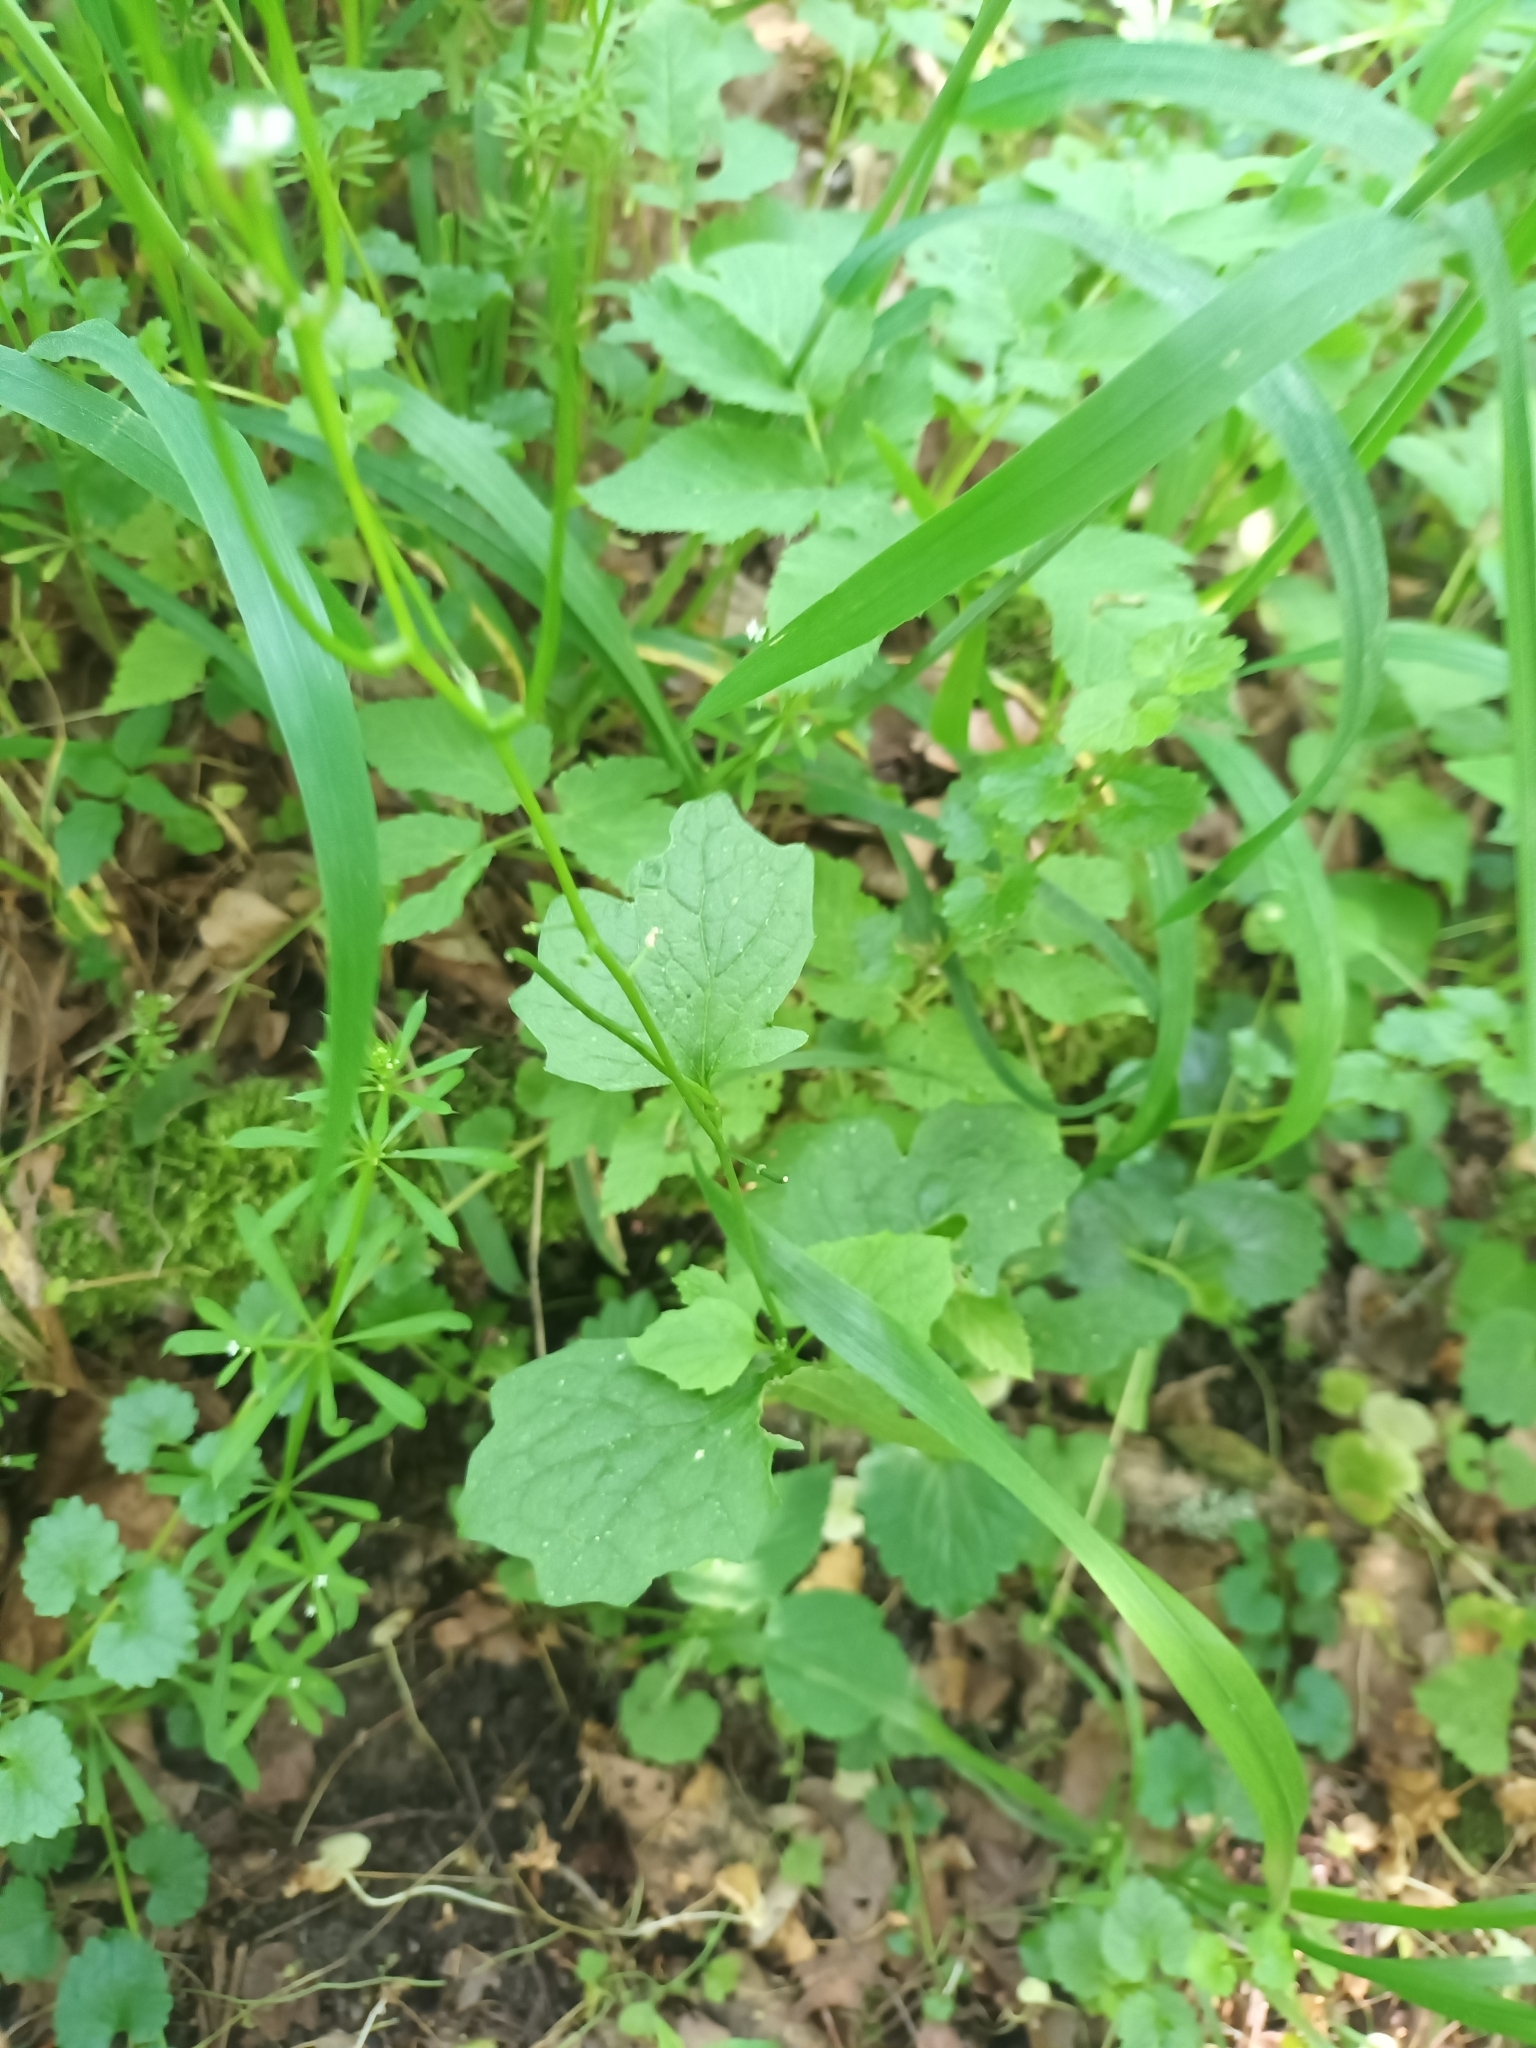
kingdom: Plantae
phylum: Tracheophyta
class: Magnoliopsida
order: Brassicales
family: Brassicaceae
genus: Alliaria
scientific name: Alliaria petiolata
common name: Garlic mustard
